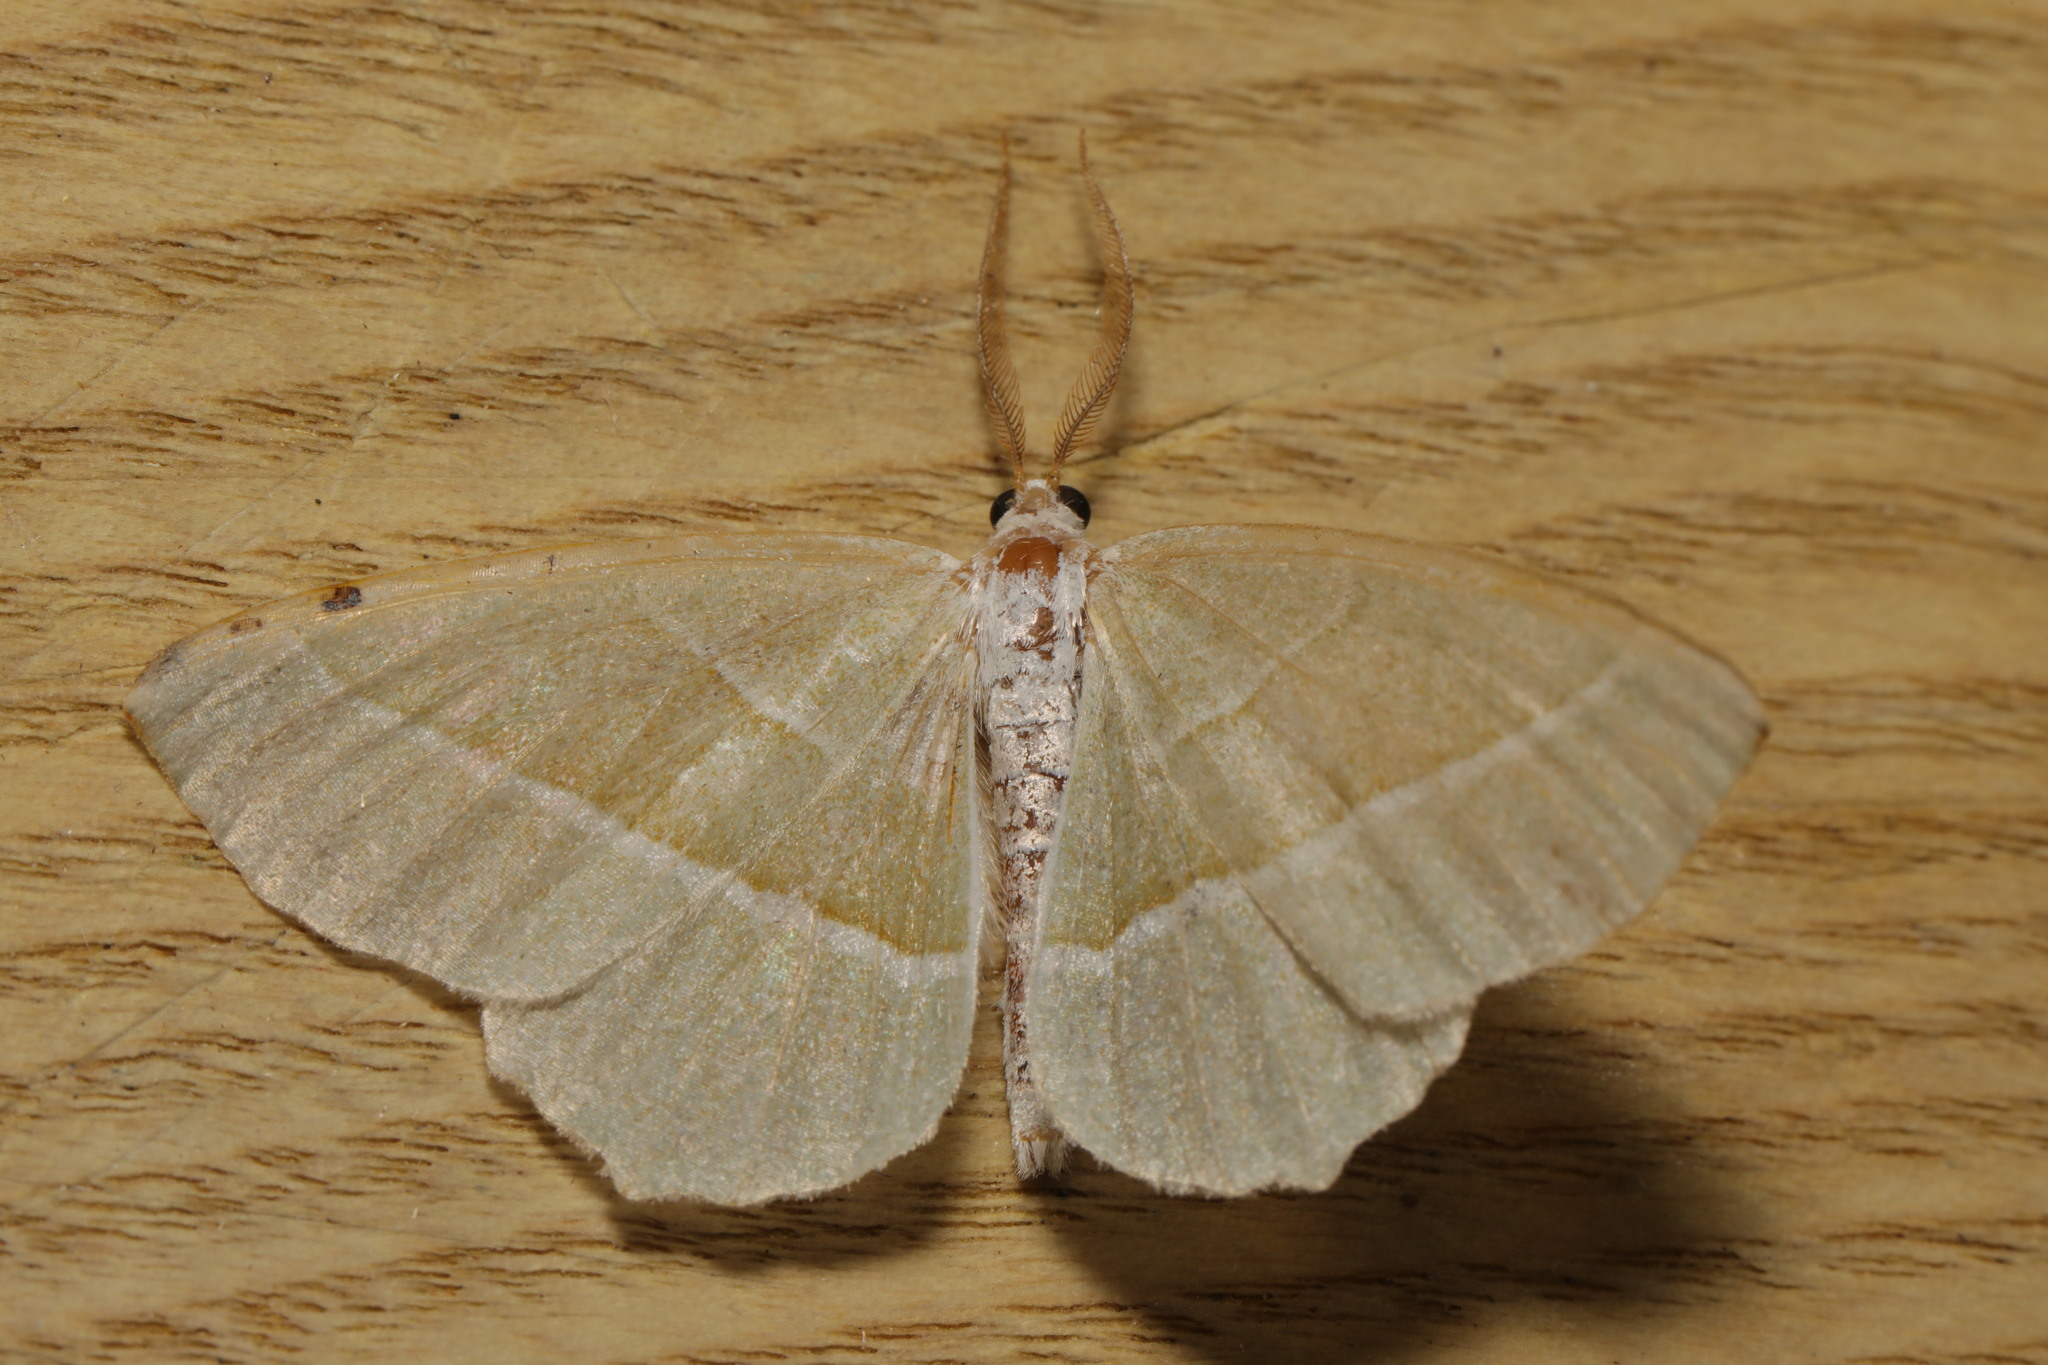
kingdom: Animalia
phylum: Arthropoda
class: Insecta
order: Lepidoptera
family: Geometridae
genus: Campaea
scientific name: Campaea margaritaria
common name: Light emerald
